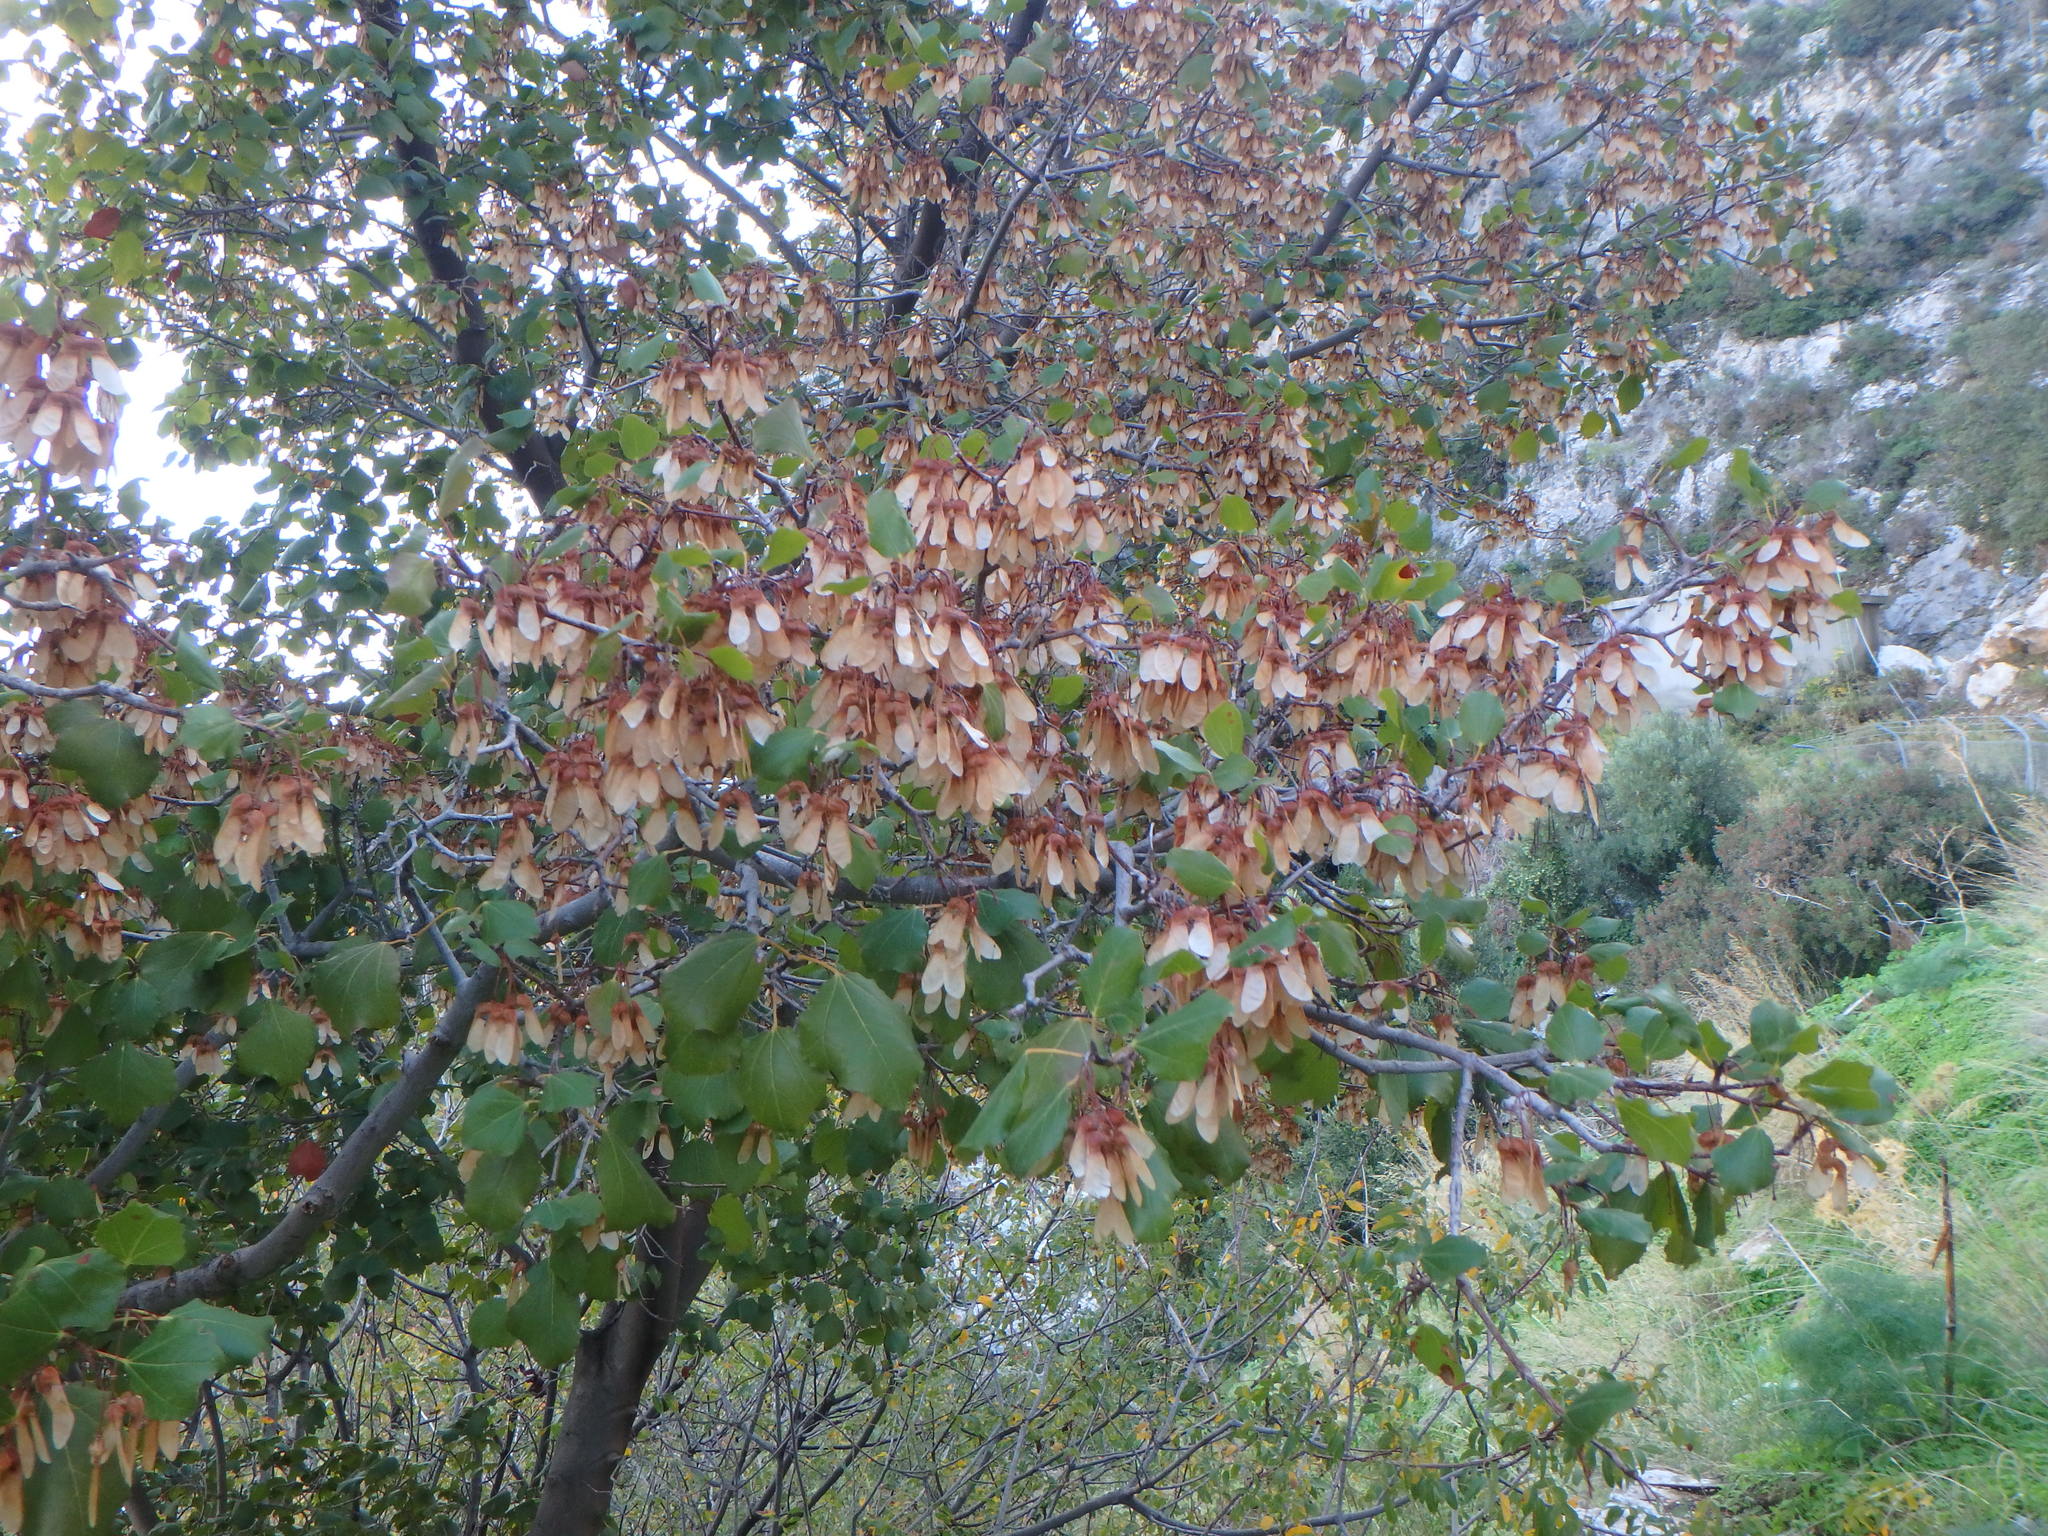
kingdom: Plantae
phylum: Tracheophyta
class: Magnoliopsida
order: Sapindales
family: Sapindaceae
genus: Acer
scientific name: Acer obtusifolium
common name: Cyprus maple
